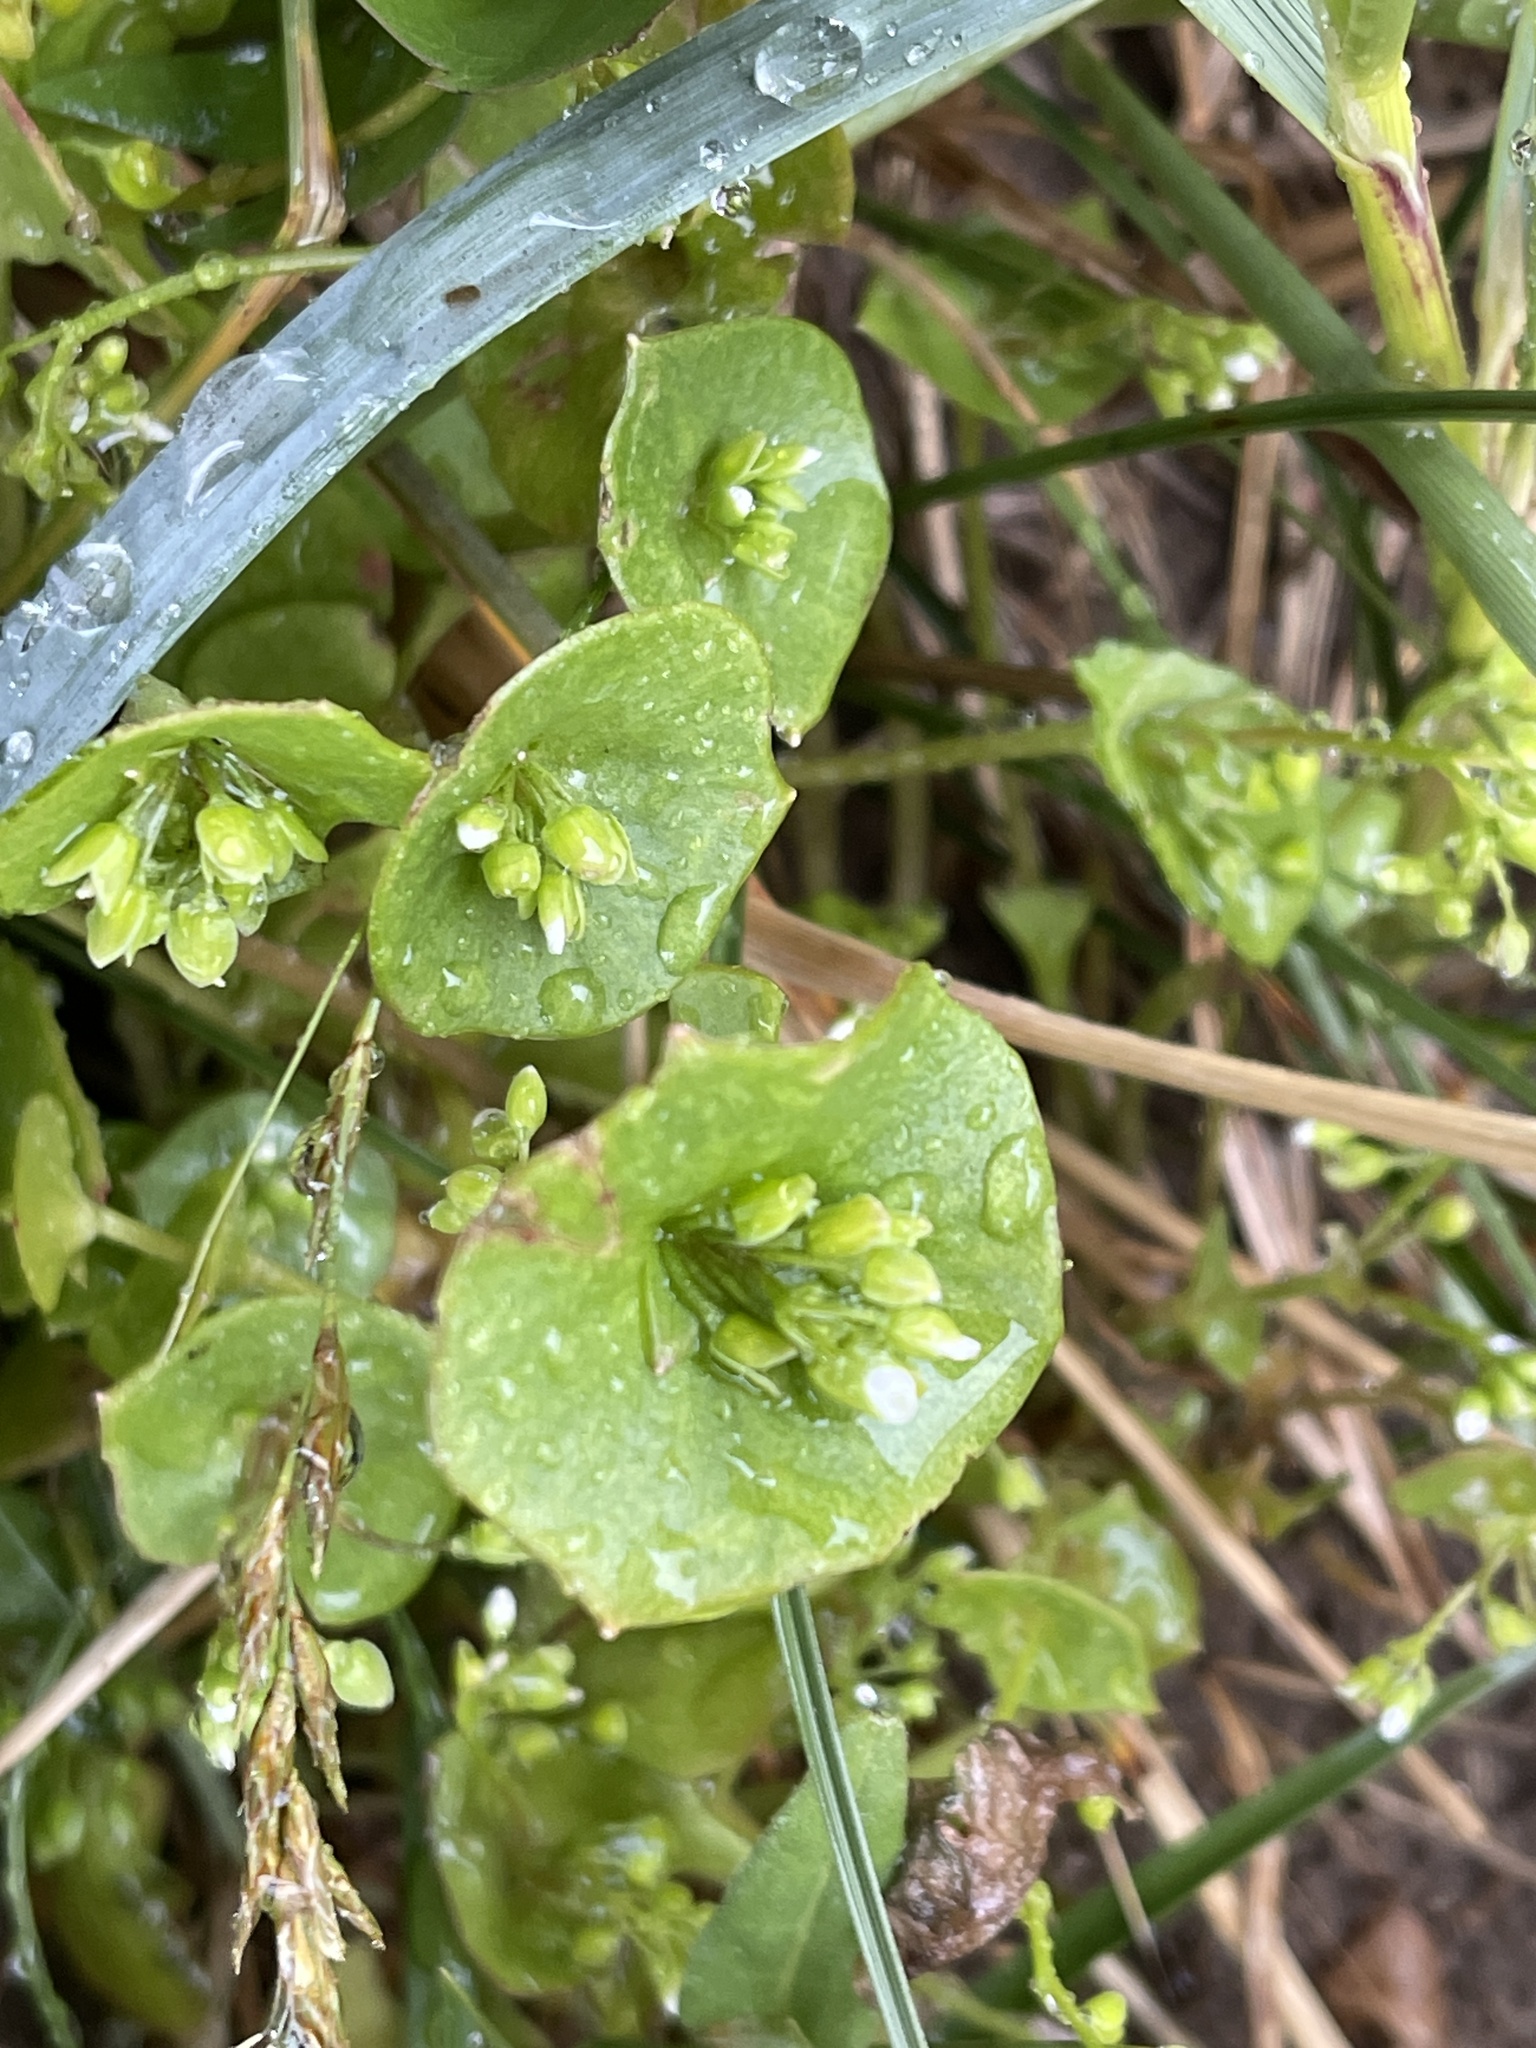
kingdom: Plantae
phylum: Tracheophyta
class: Magnoliopsida
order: Caryophyllales
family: Montiaceae
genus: Claytonia
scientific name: Claytonia perfoliata
